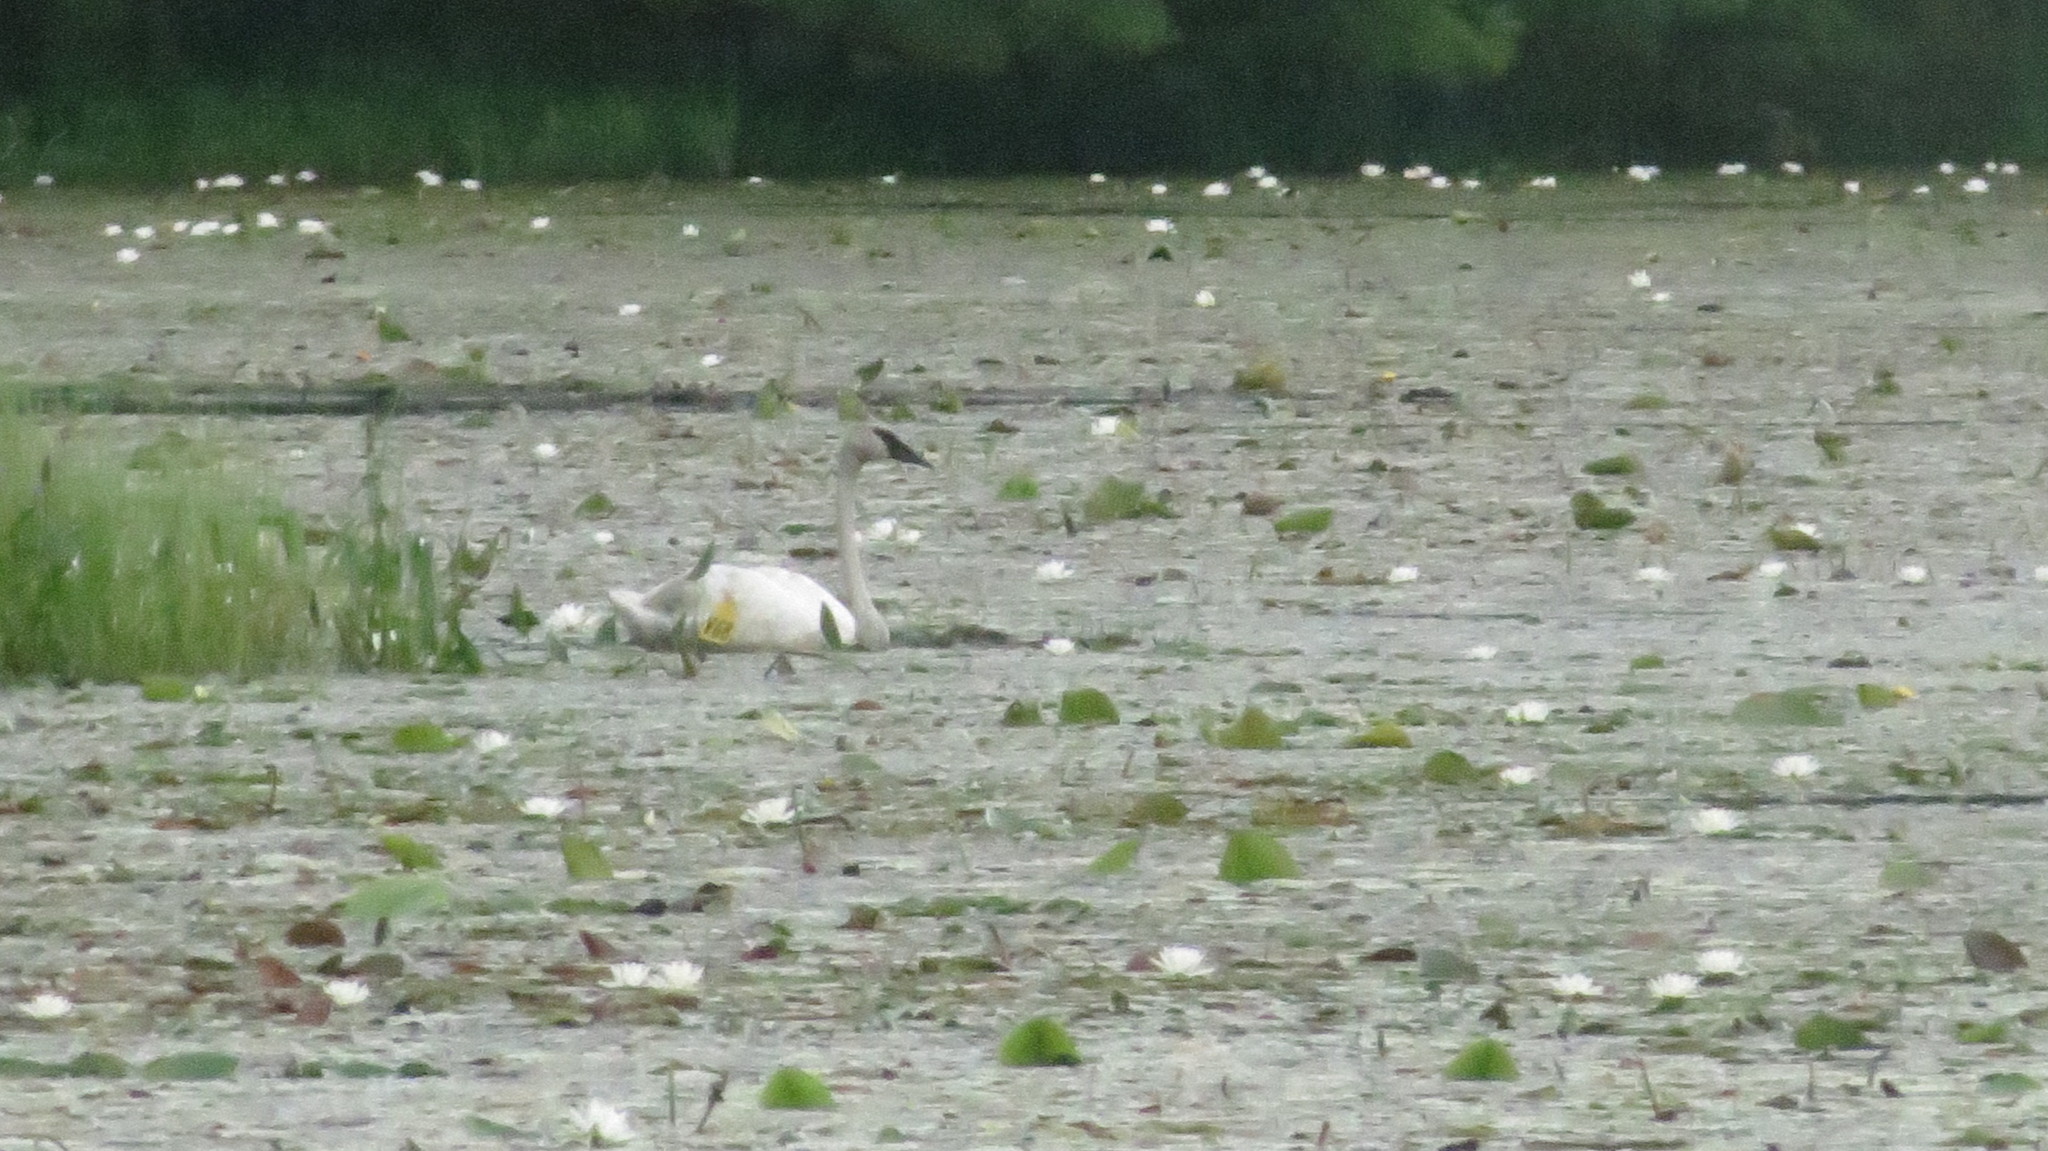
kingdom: Animalia
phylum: Chordata
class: Aves
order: Anseriformes
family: Anatidae
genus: Cygnus
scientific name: Cygnus buccinator
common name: Trumpeter swan
